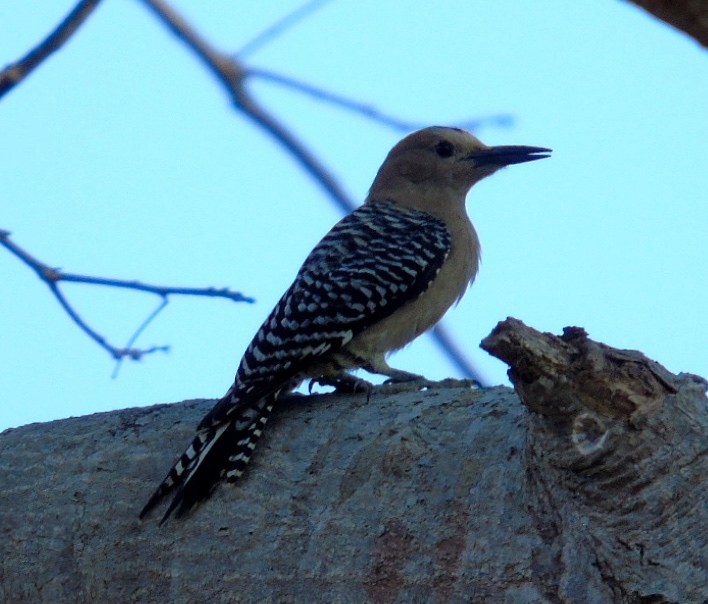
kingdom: Animalia
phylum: Chordata
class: Aves
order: Piciformes
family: Picidae
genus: Melanerpes
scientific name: Melanerpes uropygialis
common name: Gila woodpecker
